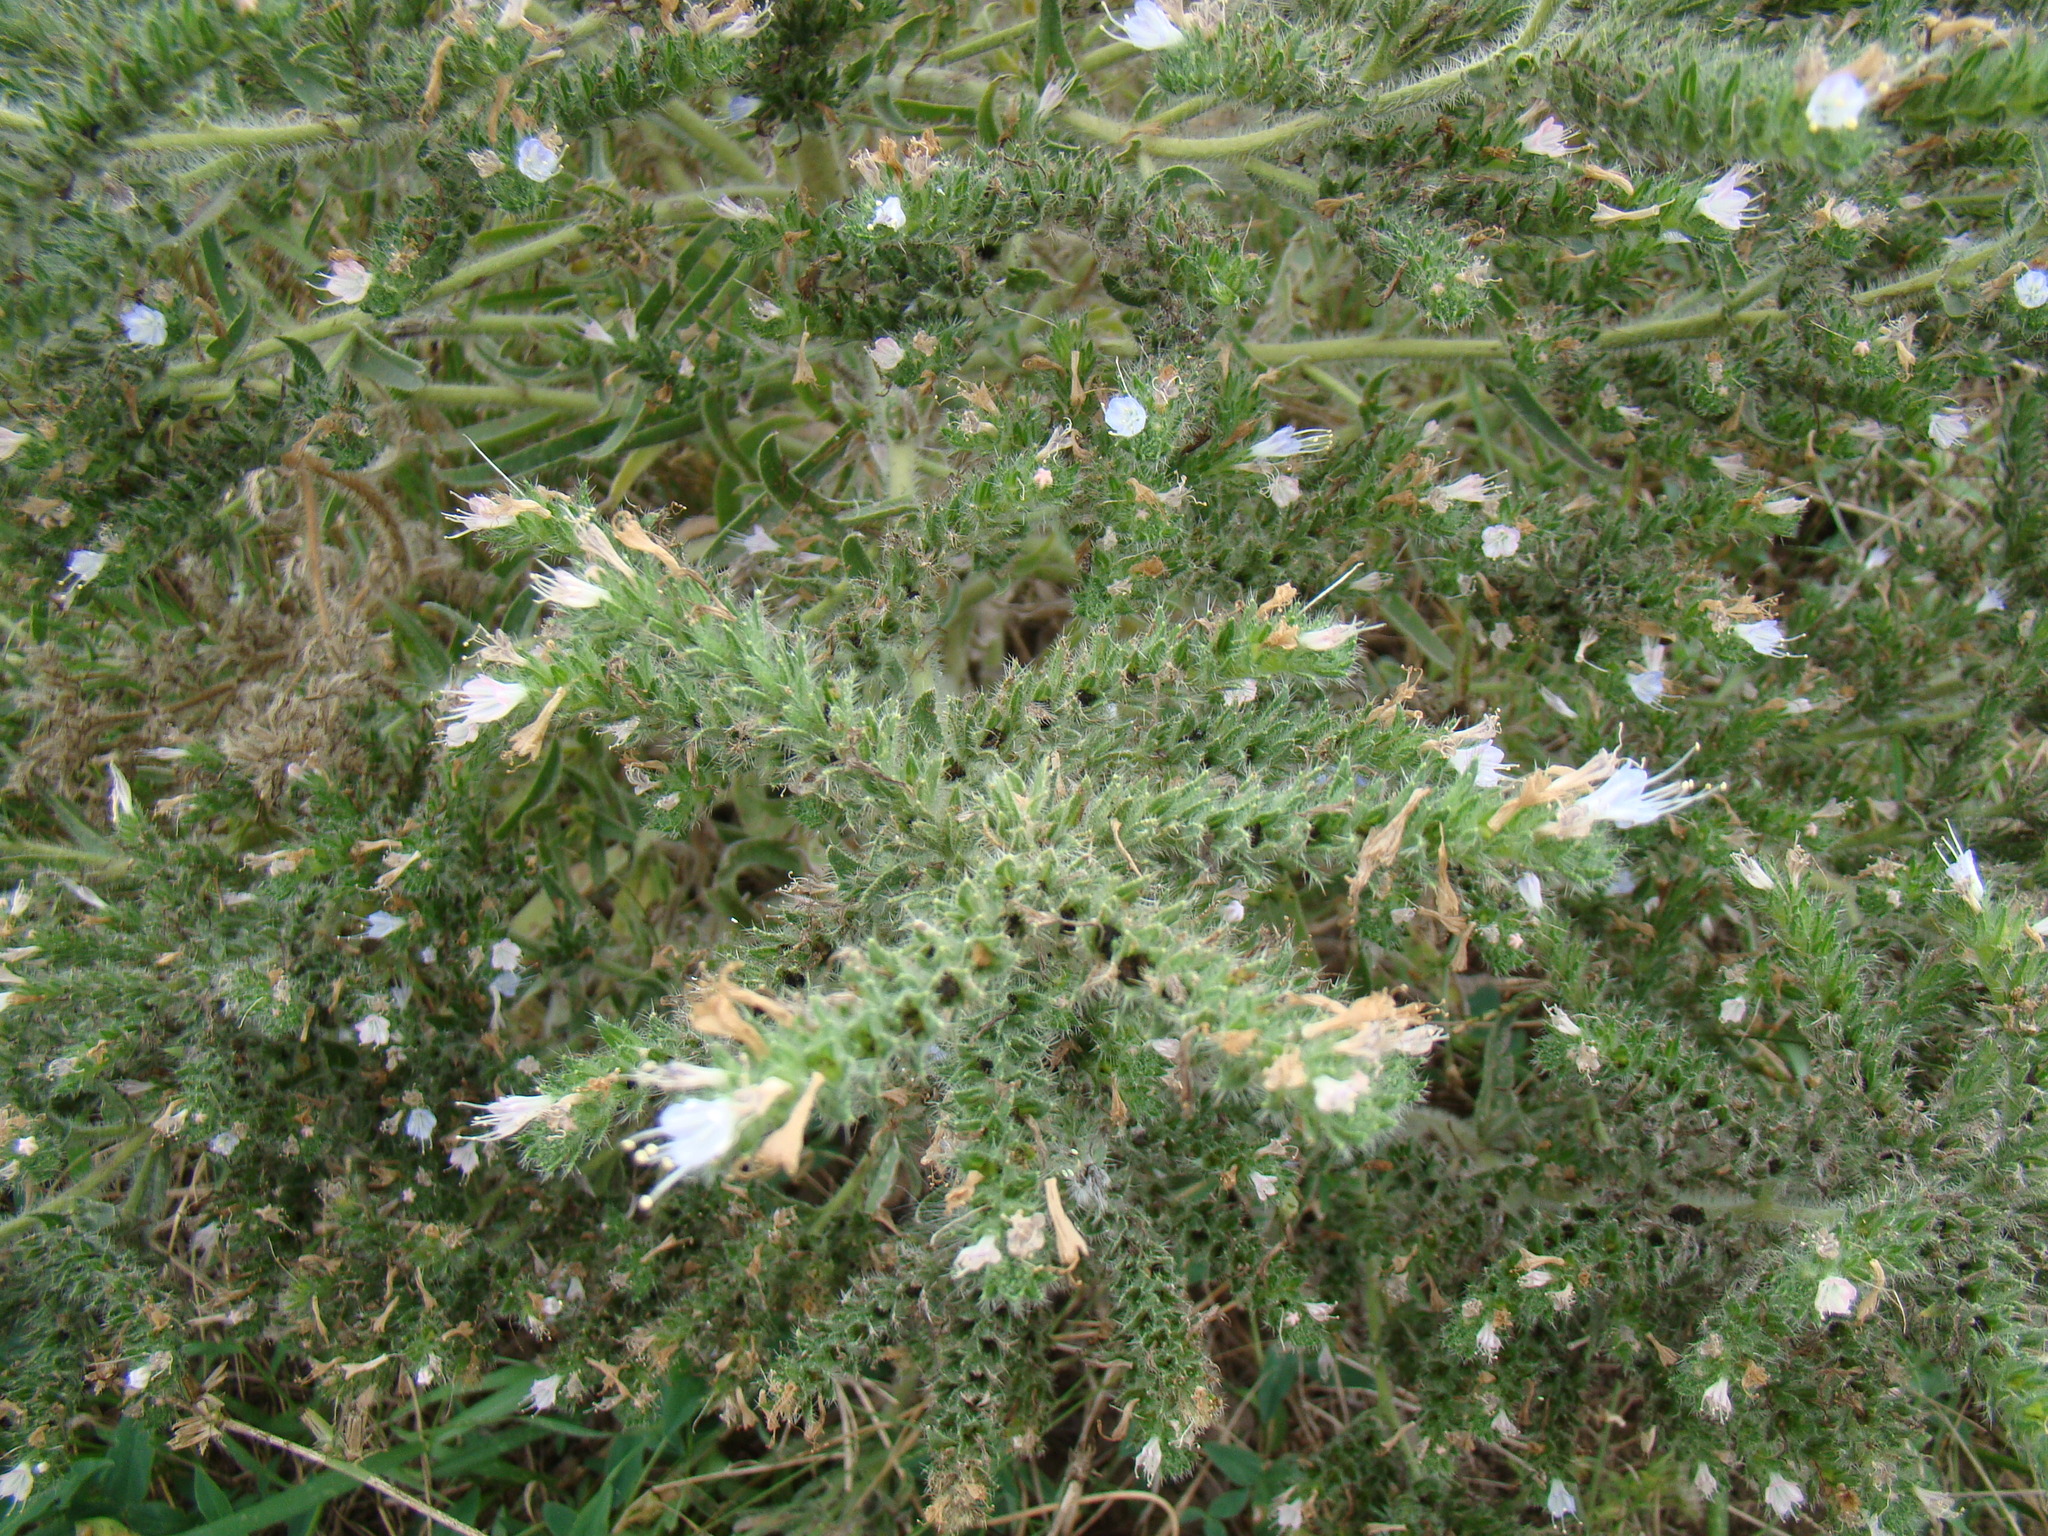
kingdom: Plantae
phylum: Tracheophyta
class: Magnoliopsida
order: Boraginales
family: Boraginaceae
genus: Echium
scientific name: Echium italicum
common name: Italian viper's bugloss
